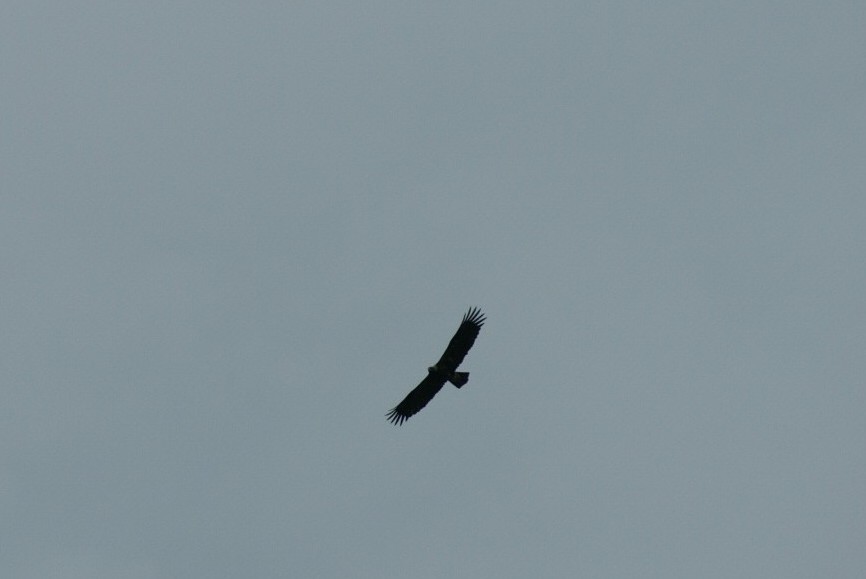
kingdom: Animalia
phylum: Chordata
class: Aves
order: Accipitriformes
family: Accipitridae
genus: Aquila
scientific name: Aquila heliaca
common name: Eastern imperial eagle
